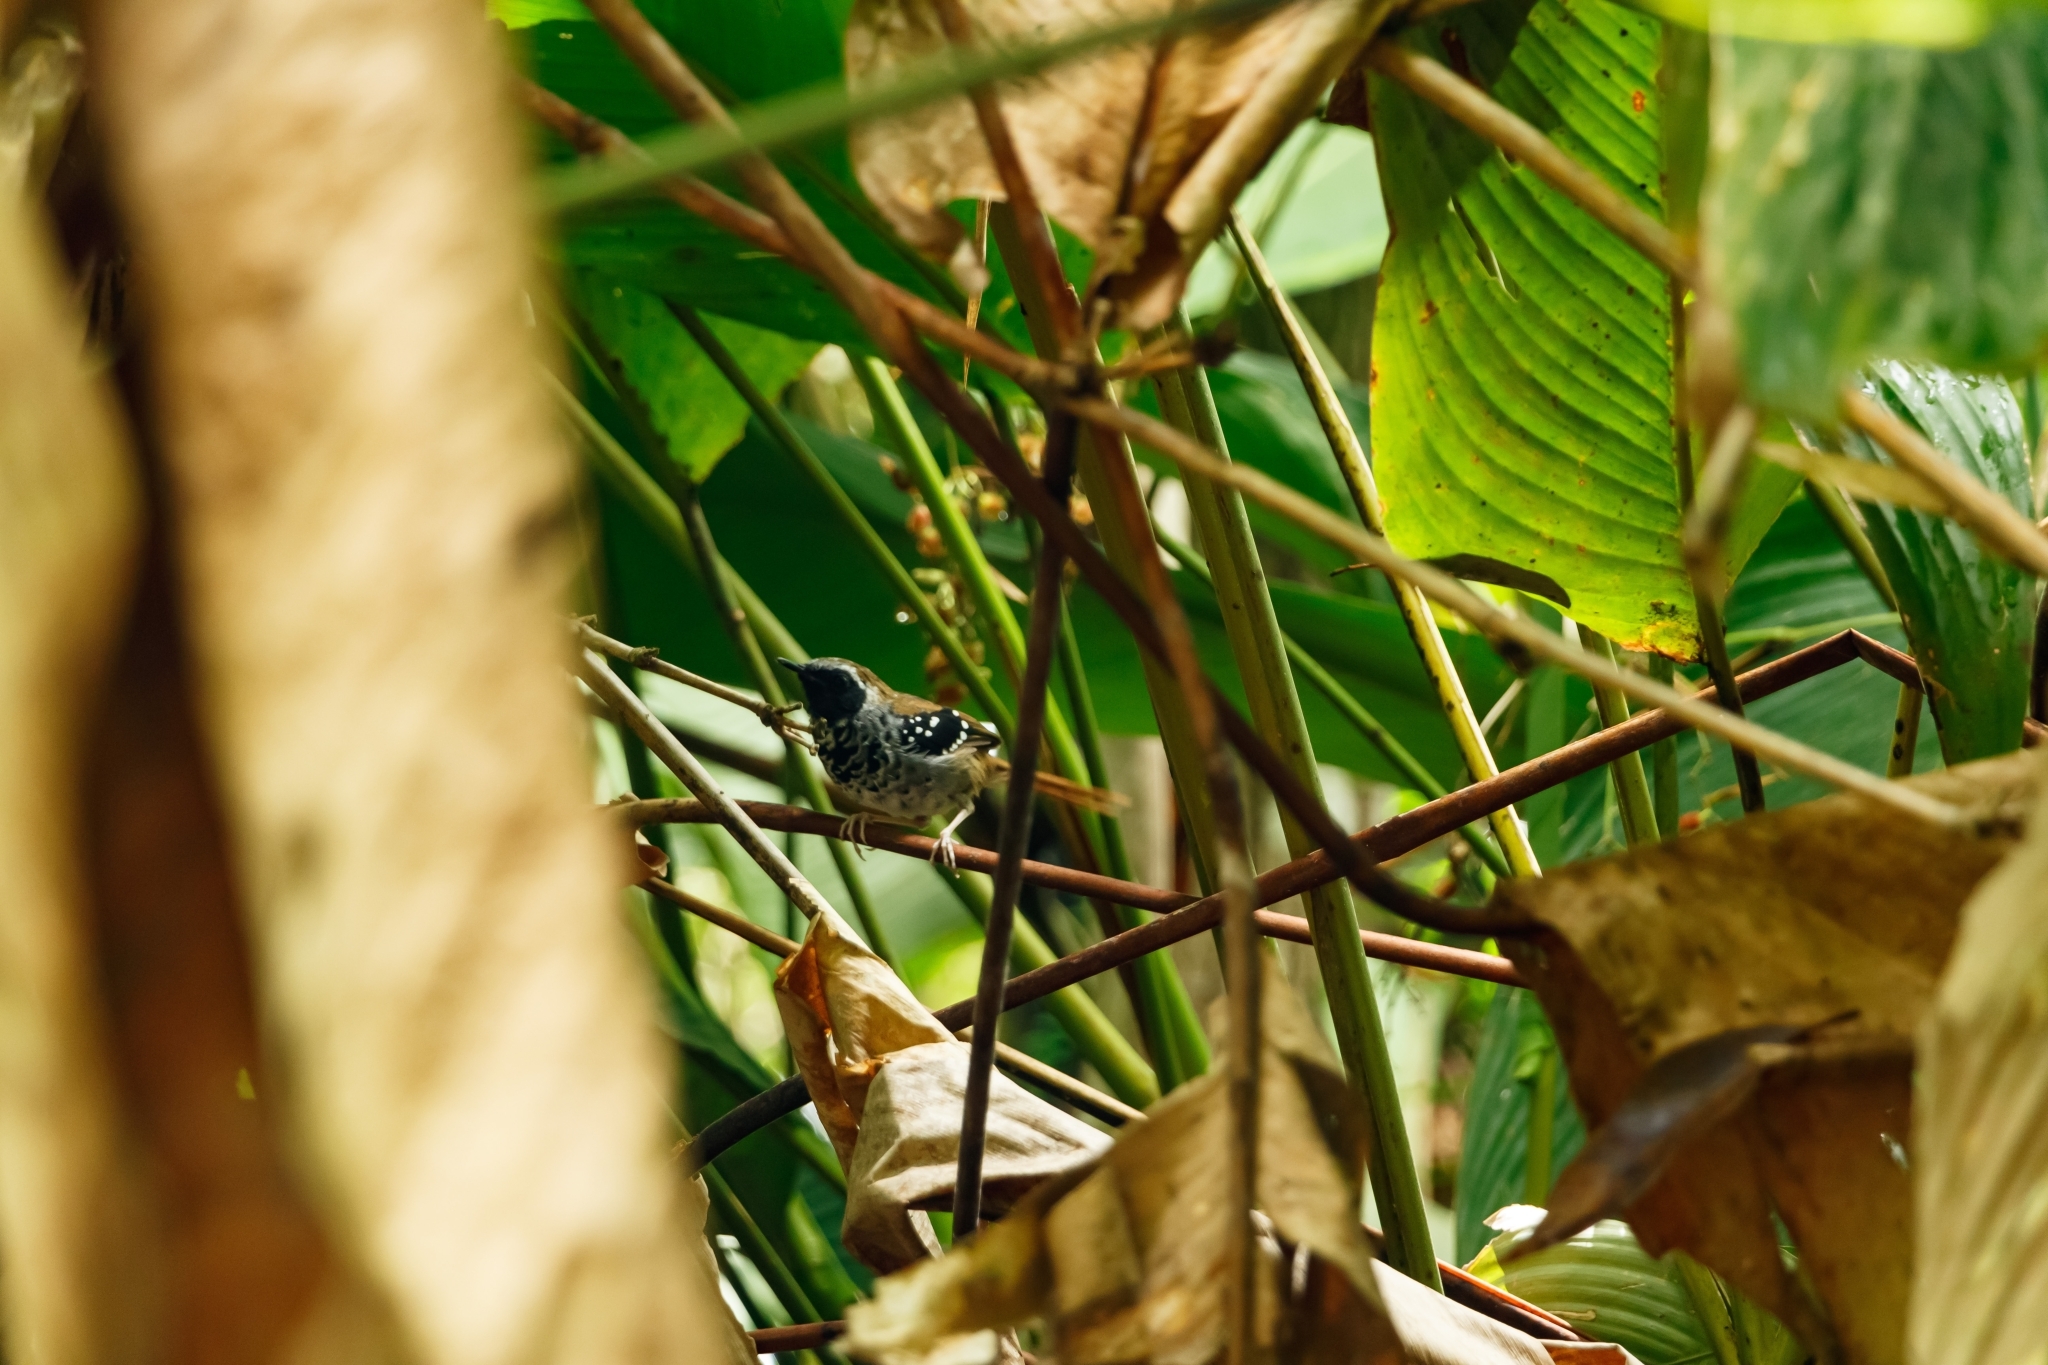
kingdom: Animalia
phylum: Chordata
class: Aves
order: Passeriformes
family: Thamnophilidae
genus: Myrmeciza
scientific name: Myrmeciza squamosa
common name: Squamate antbird
